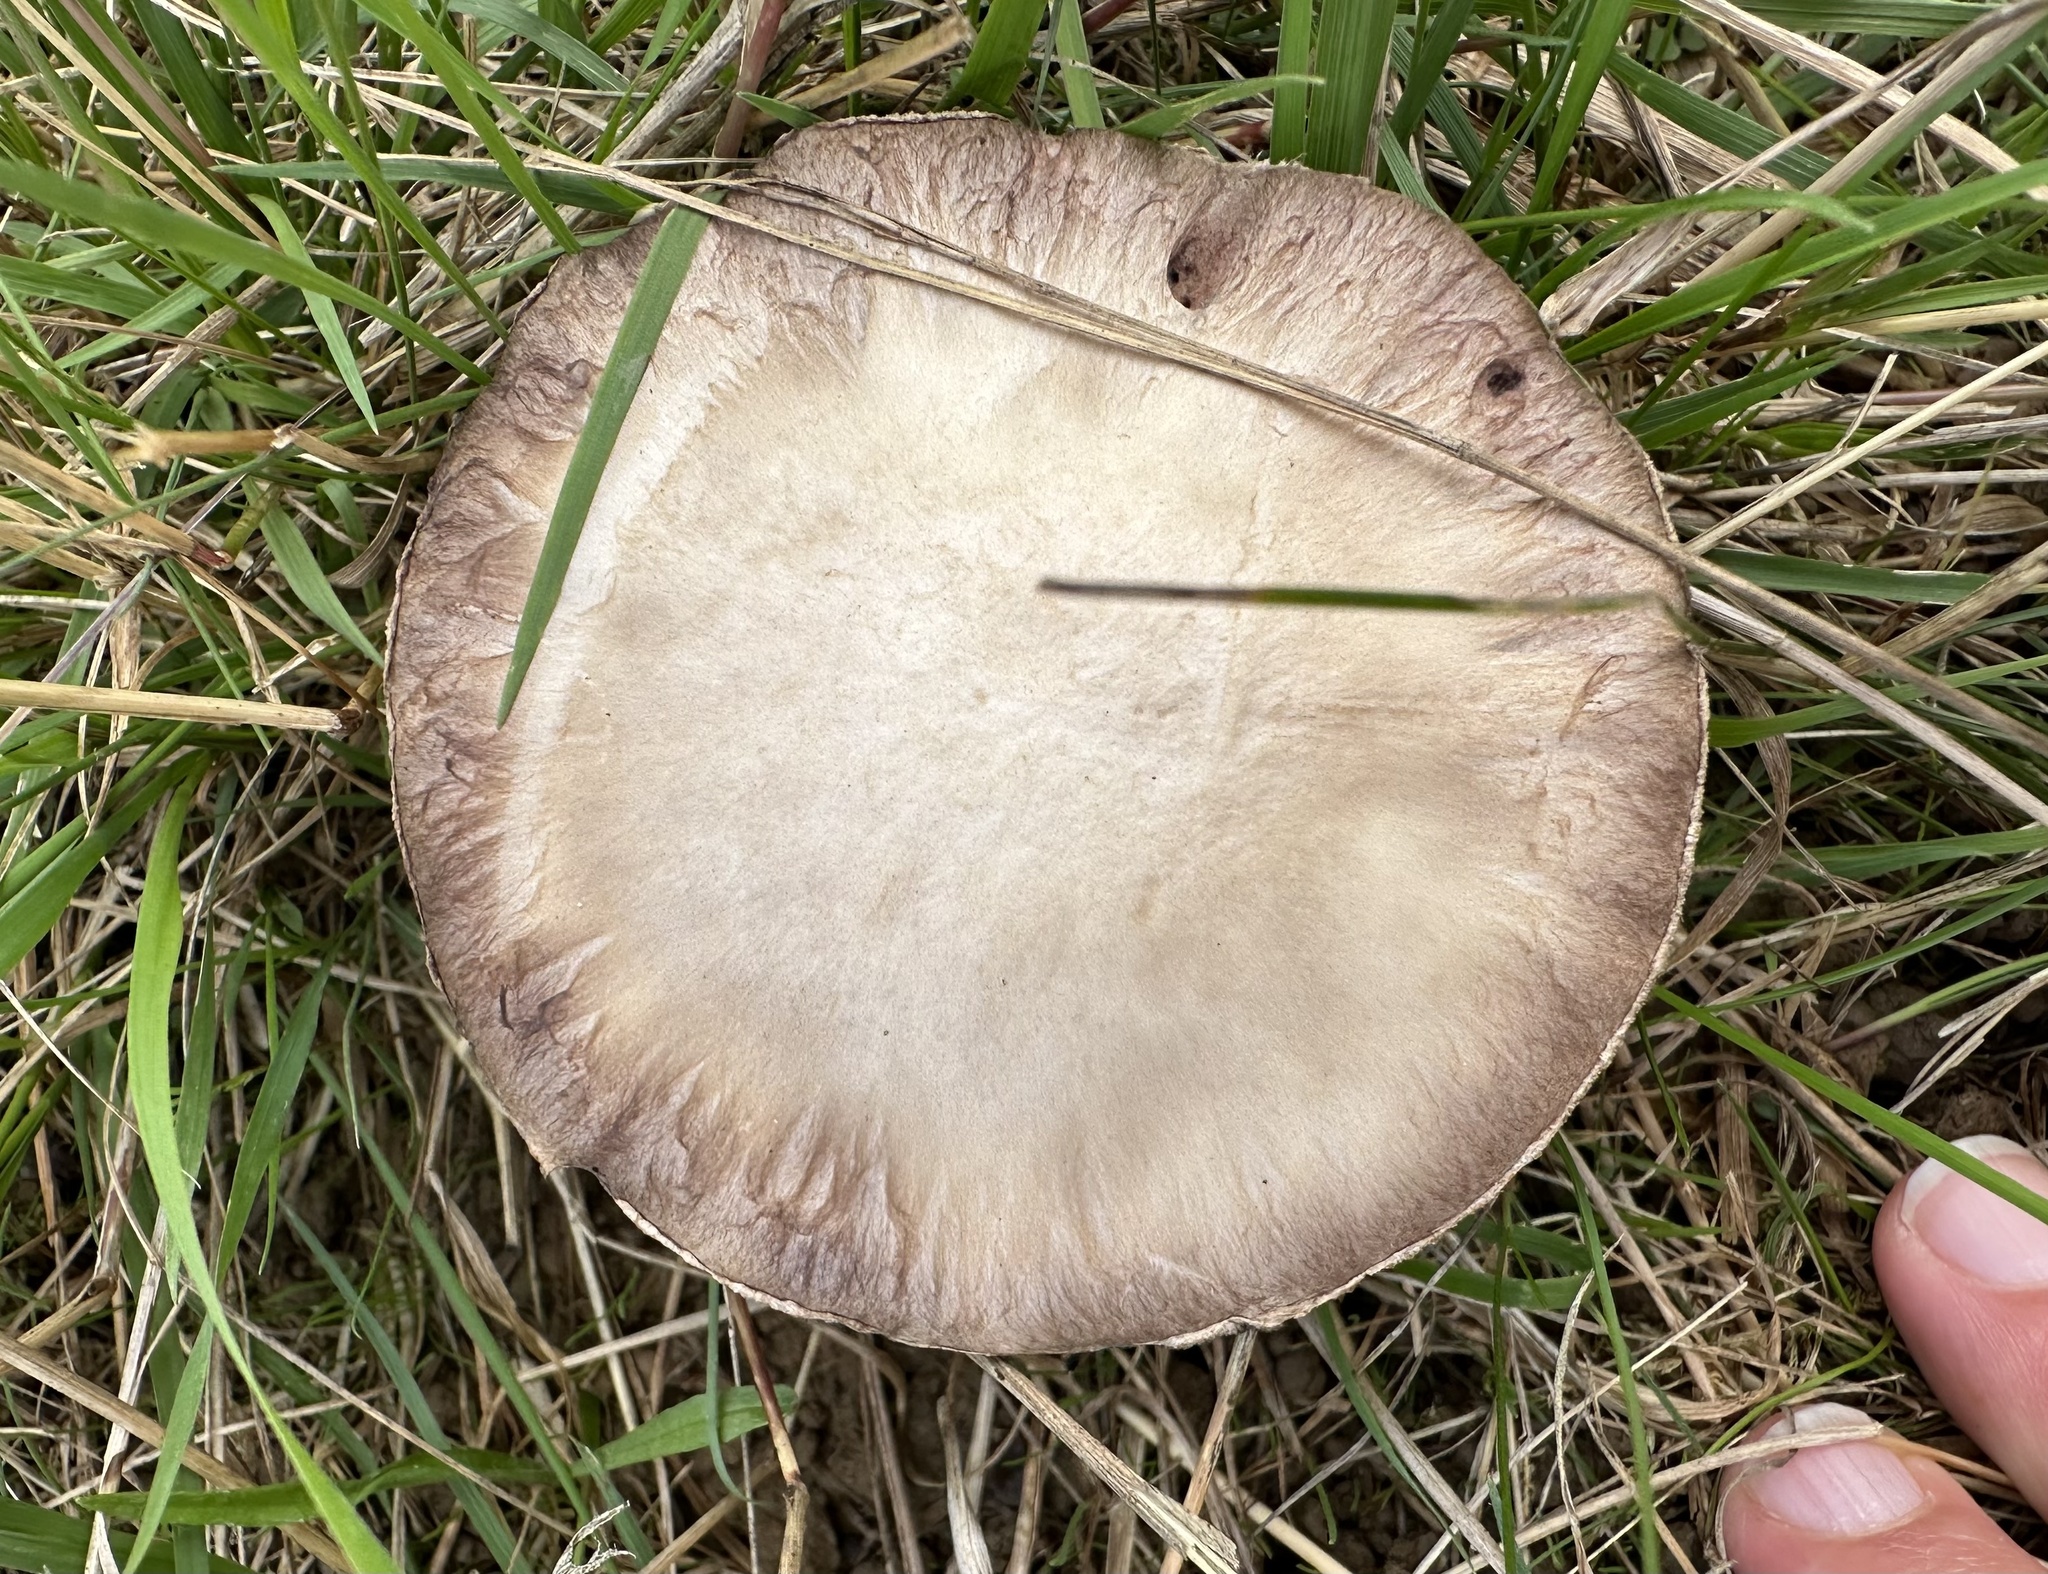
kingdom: Fungi
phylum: Basidiomycota
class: Agaricomycetes
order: Agaricales
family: Agaricaceae
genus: Agaricus
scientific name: Agaricus campestris
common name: Field mushroom
